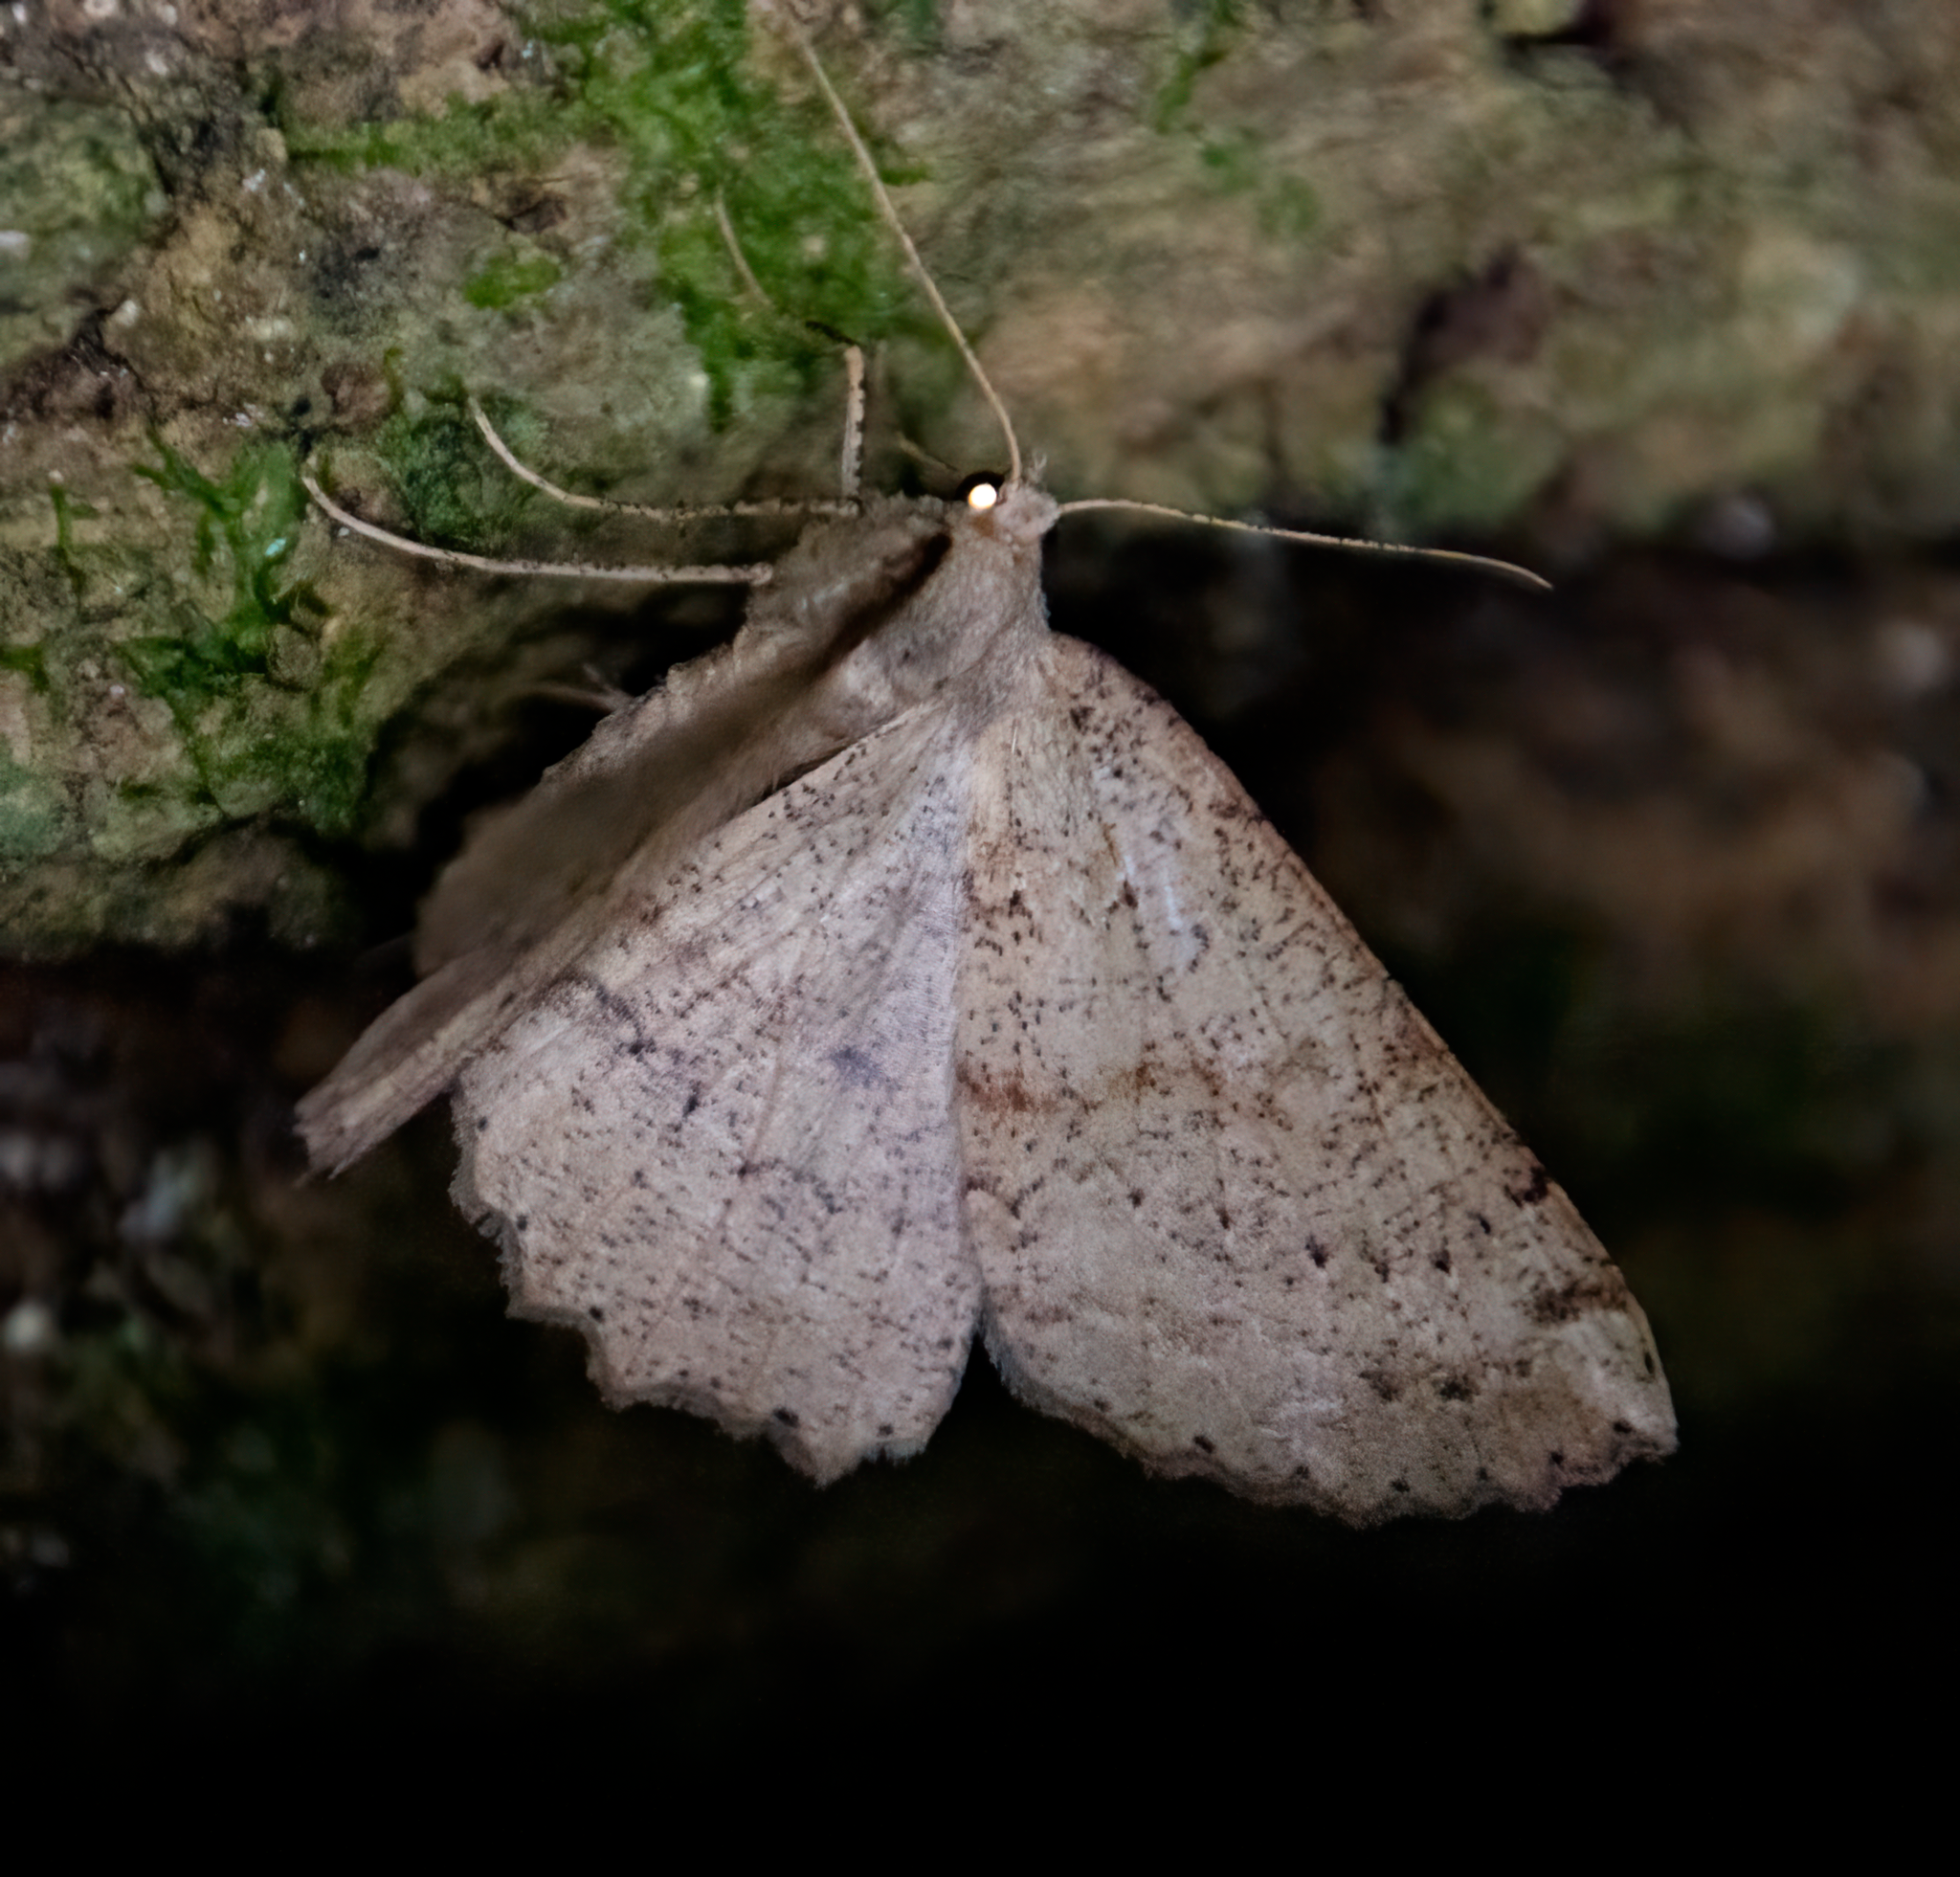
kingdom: Animalia
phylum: Arthropoda
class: Insecta
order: Lepidoptera
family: Geometridae
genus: Cleora
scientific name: Cleora scriptaria
